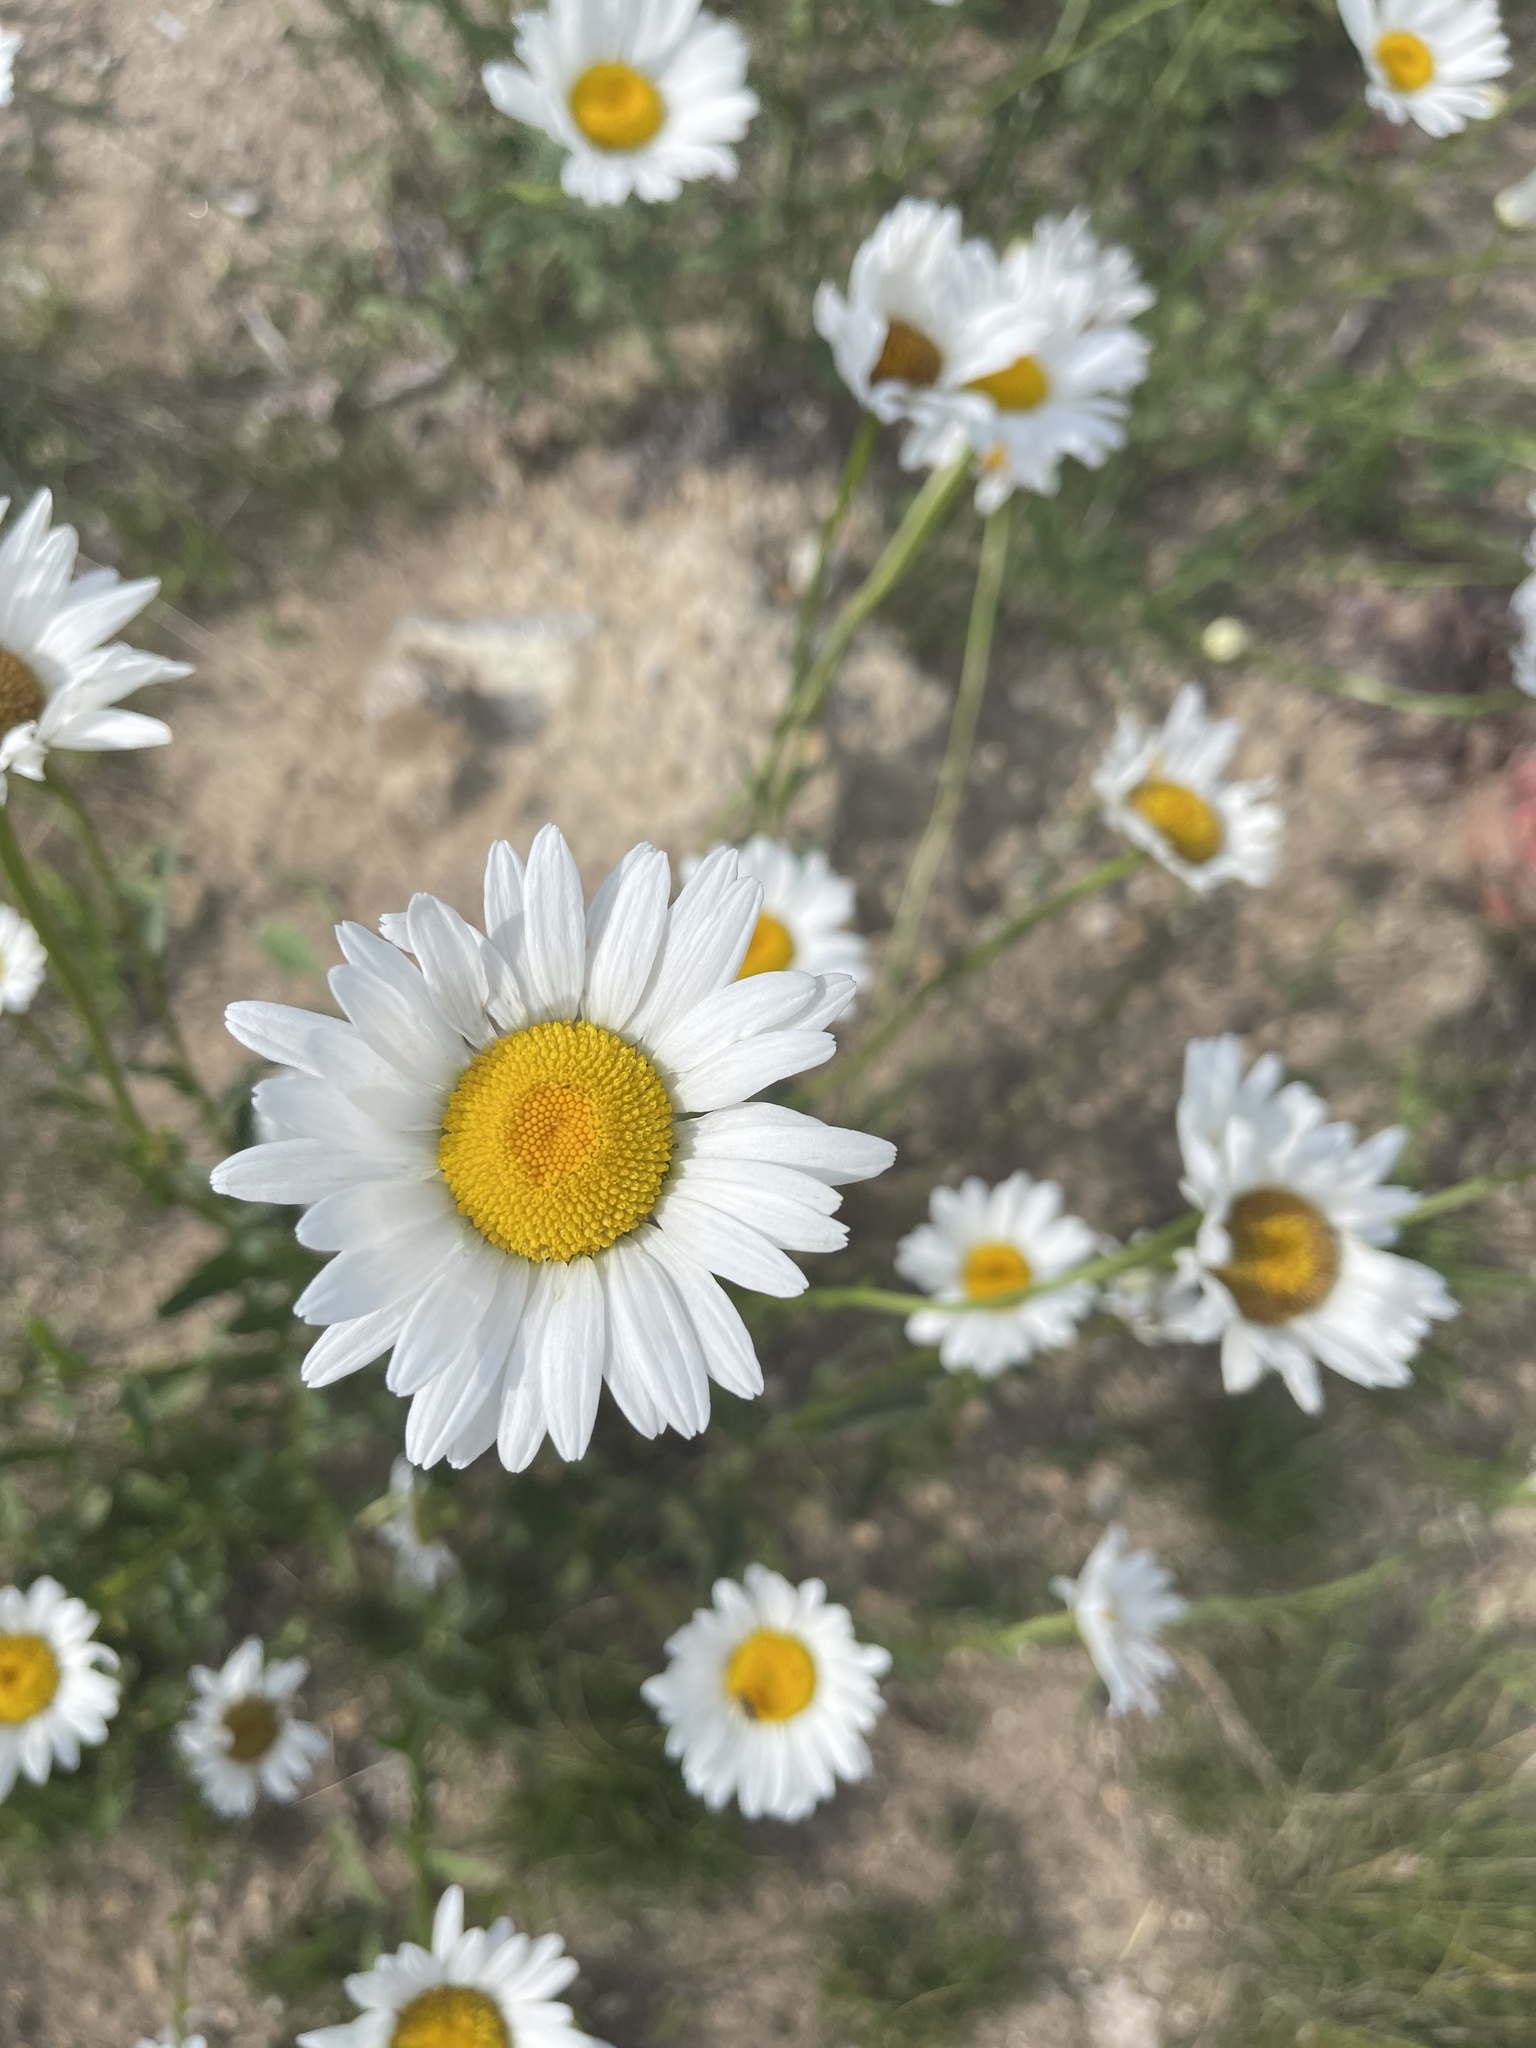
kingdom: Plantae
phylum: Tracheophyta
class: Magnoliopsida
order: Asterales
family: Asteraceae
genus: Leucanthemum
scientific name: Leucanthemum vulgare
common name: Oxeye daisy
